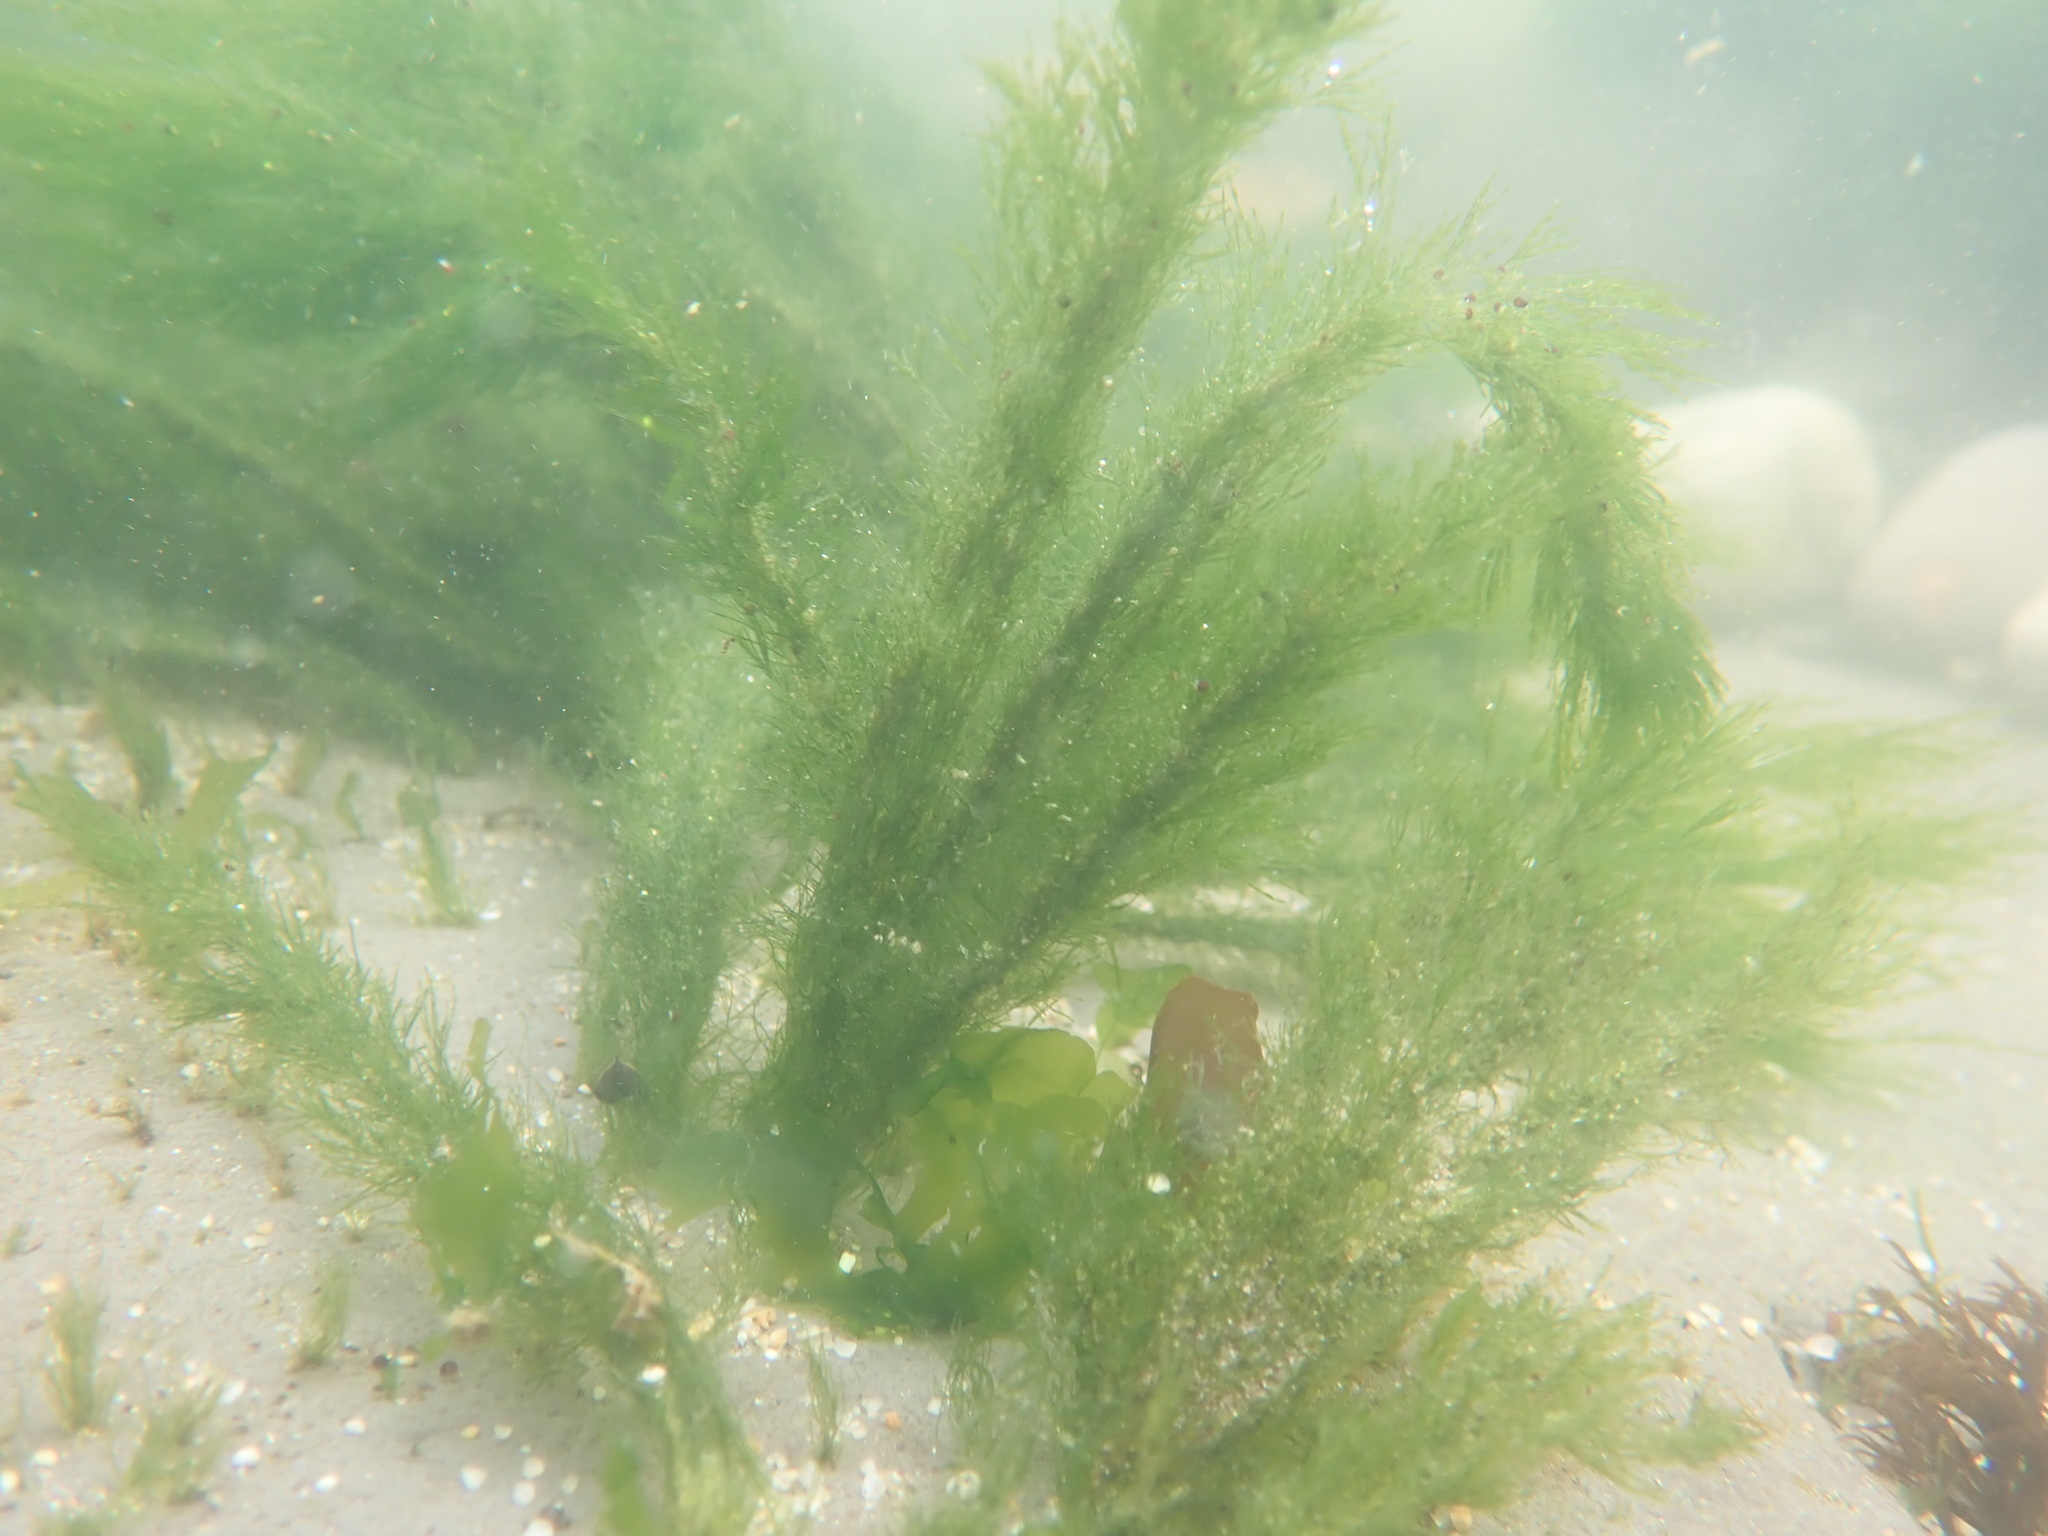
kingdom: Plantae
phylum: Chlorophyta
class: Ulvophyceae
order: Ulotrichales
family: Ulotrichaceae
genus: Acrosiphonia
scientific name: Acrosiphonia
